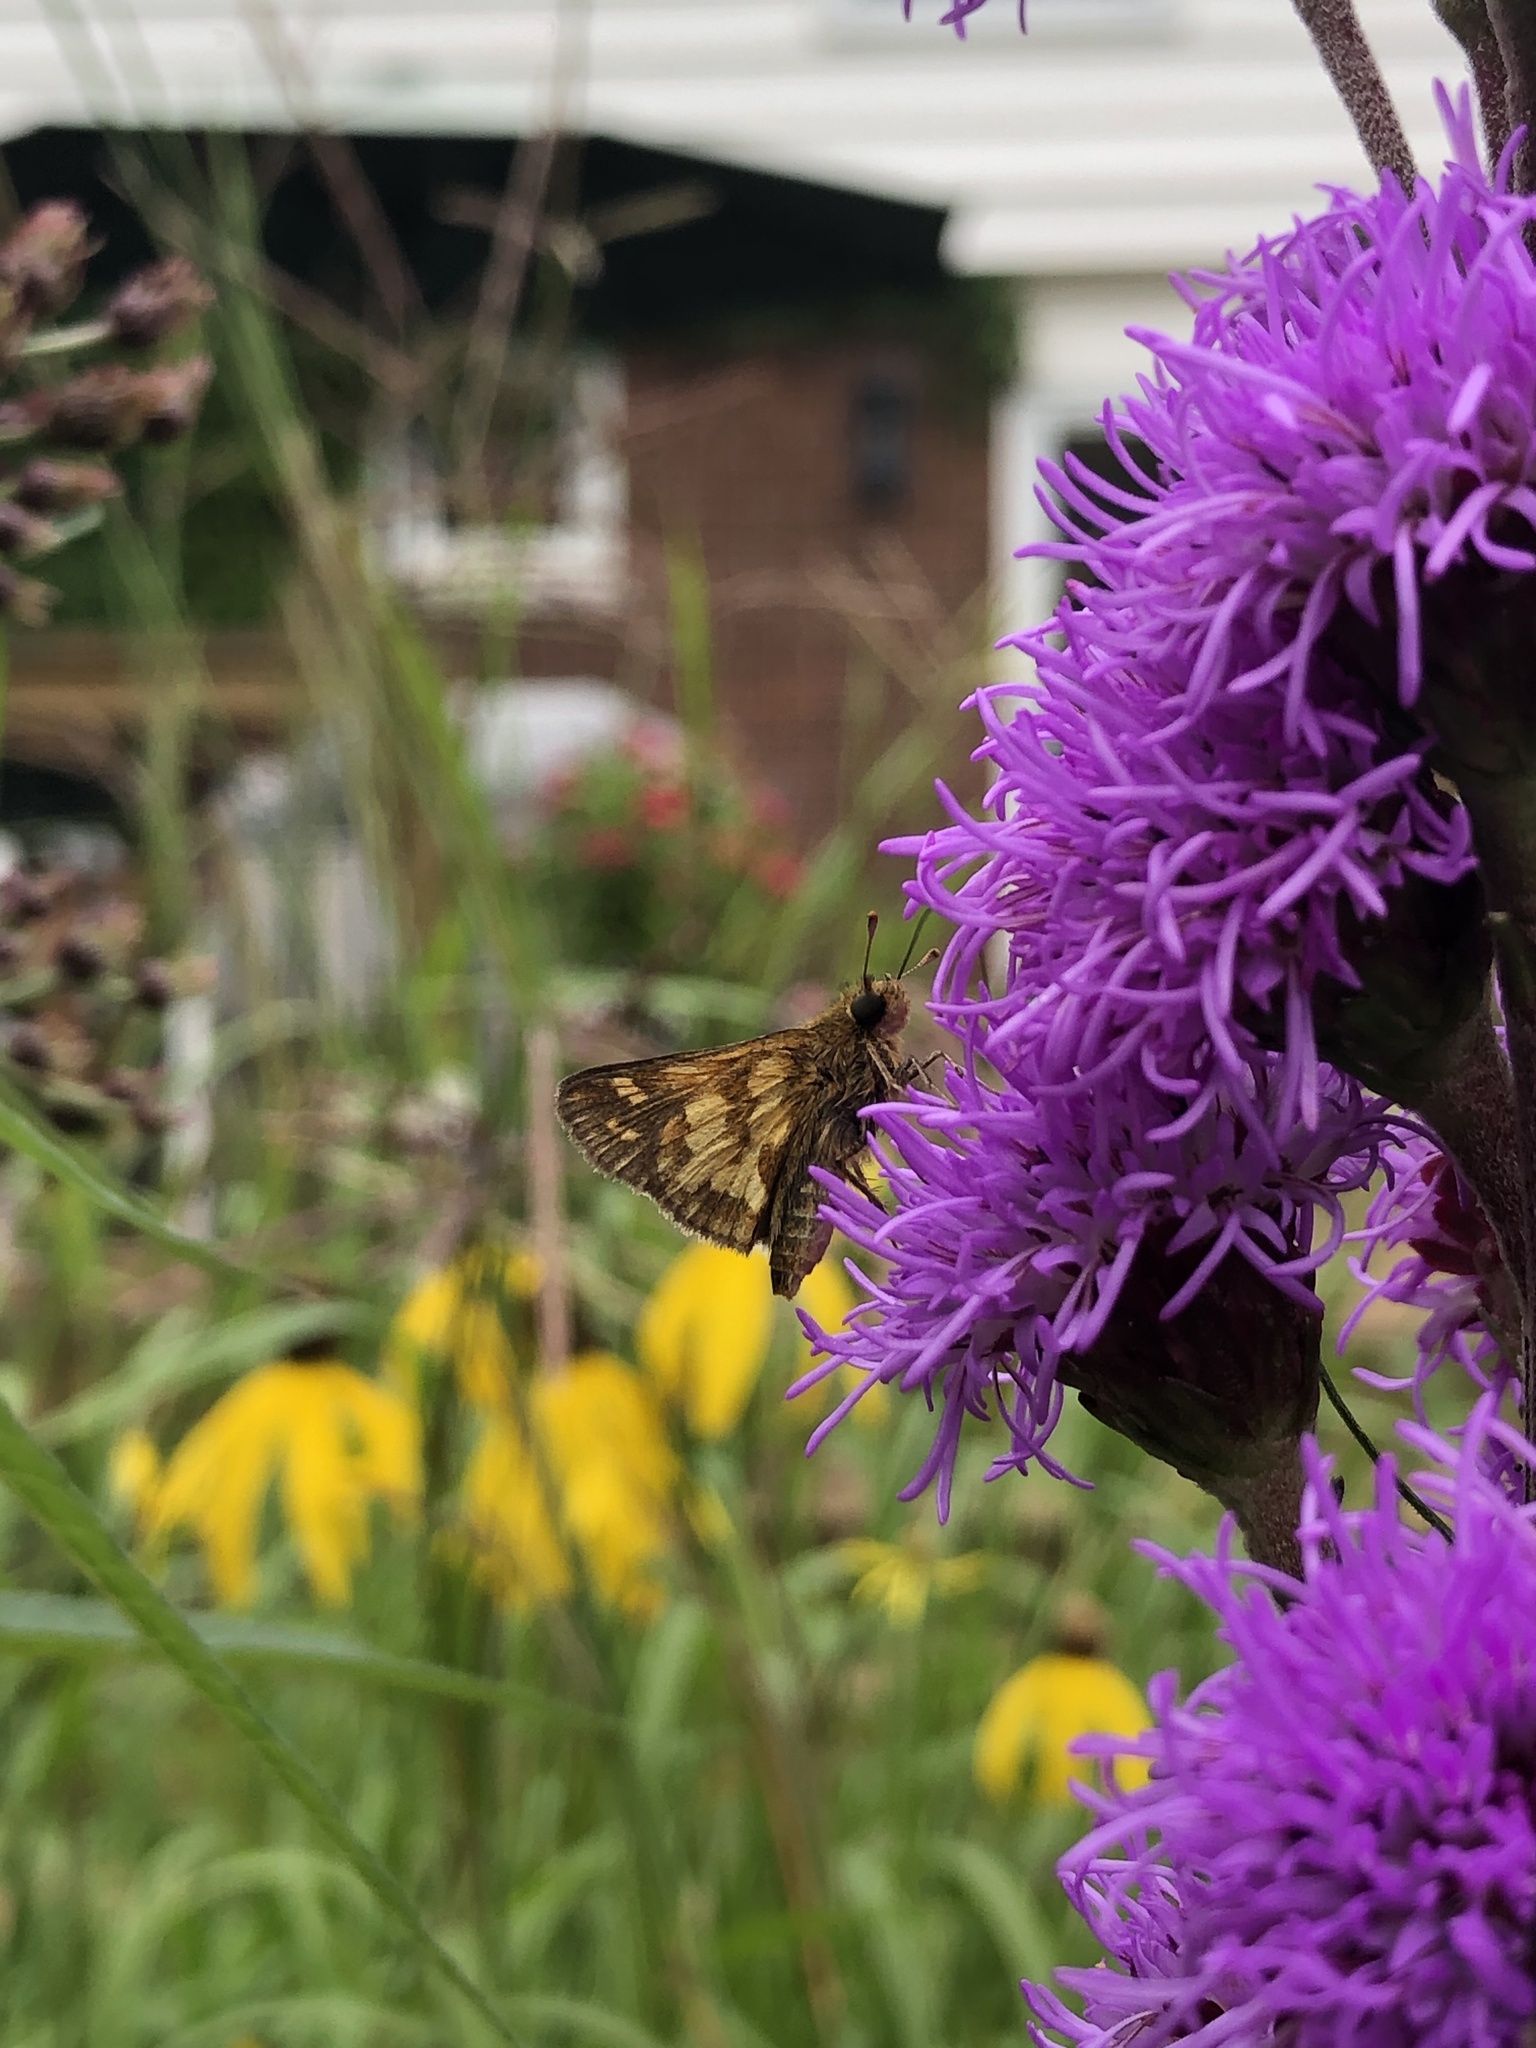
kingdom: Animalia
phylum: Arthropoda
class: Insecta
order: Lepidoptera
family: Hesperiidae
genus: Polites
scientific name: Polites coras
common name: Peck's skipper
